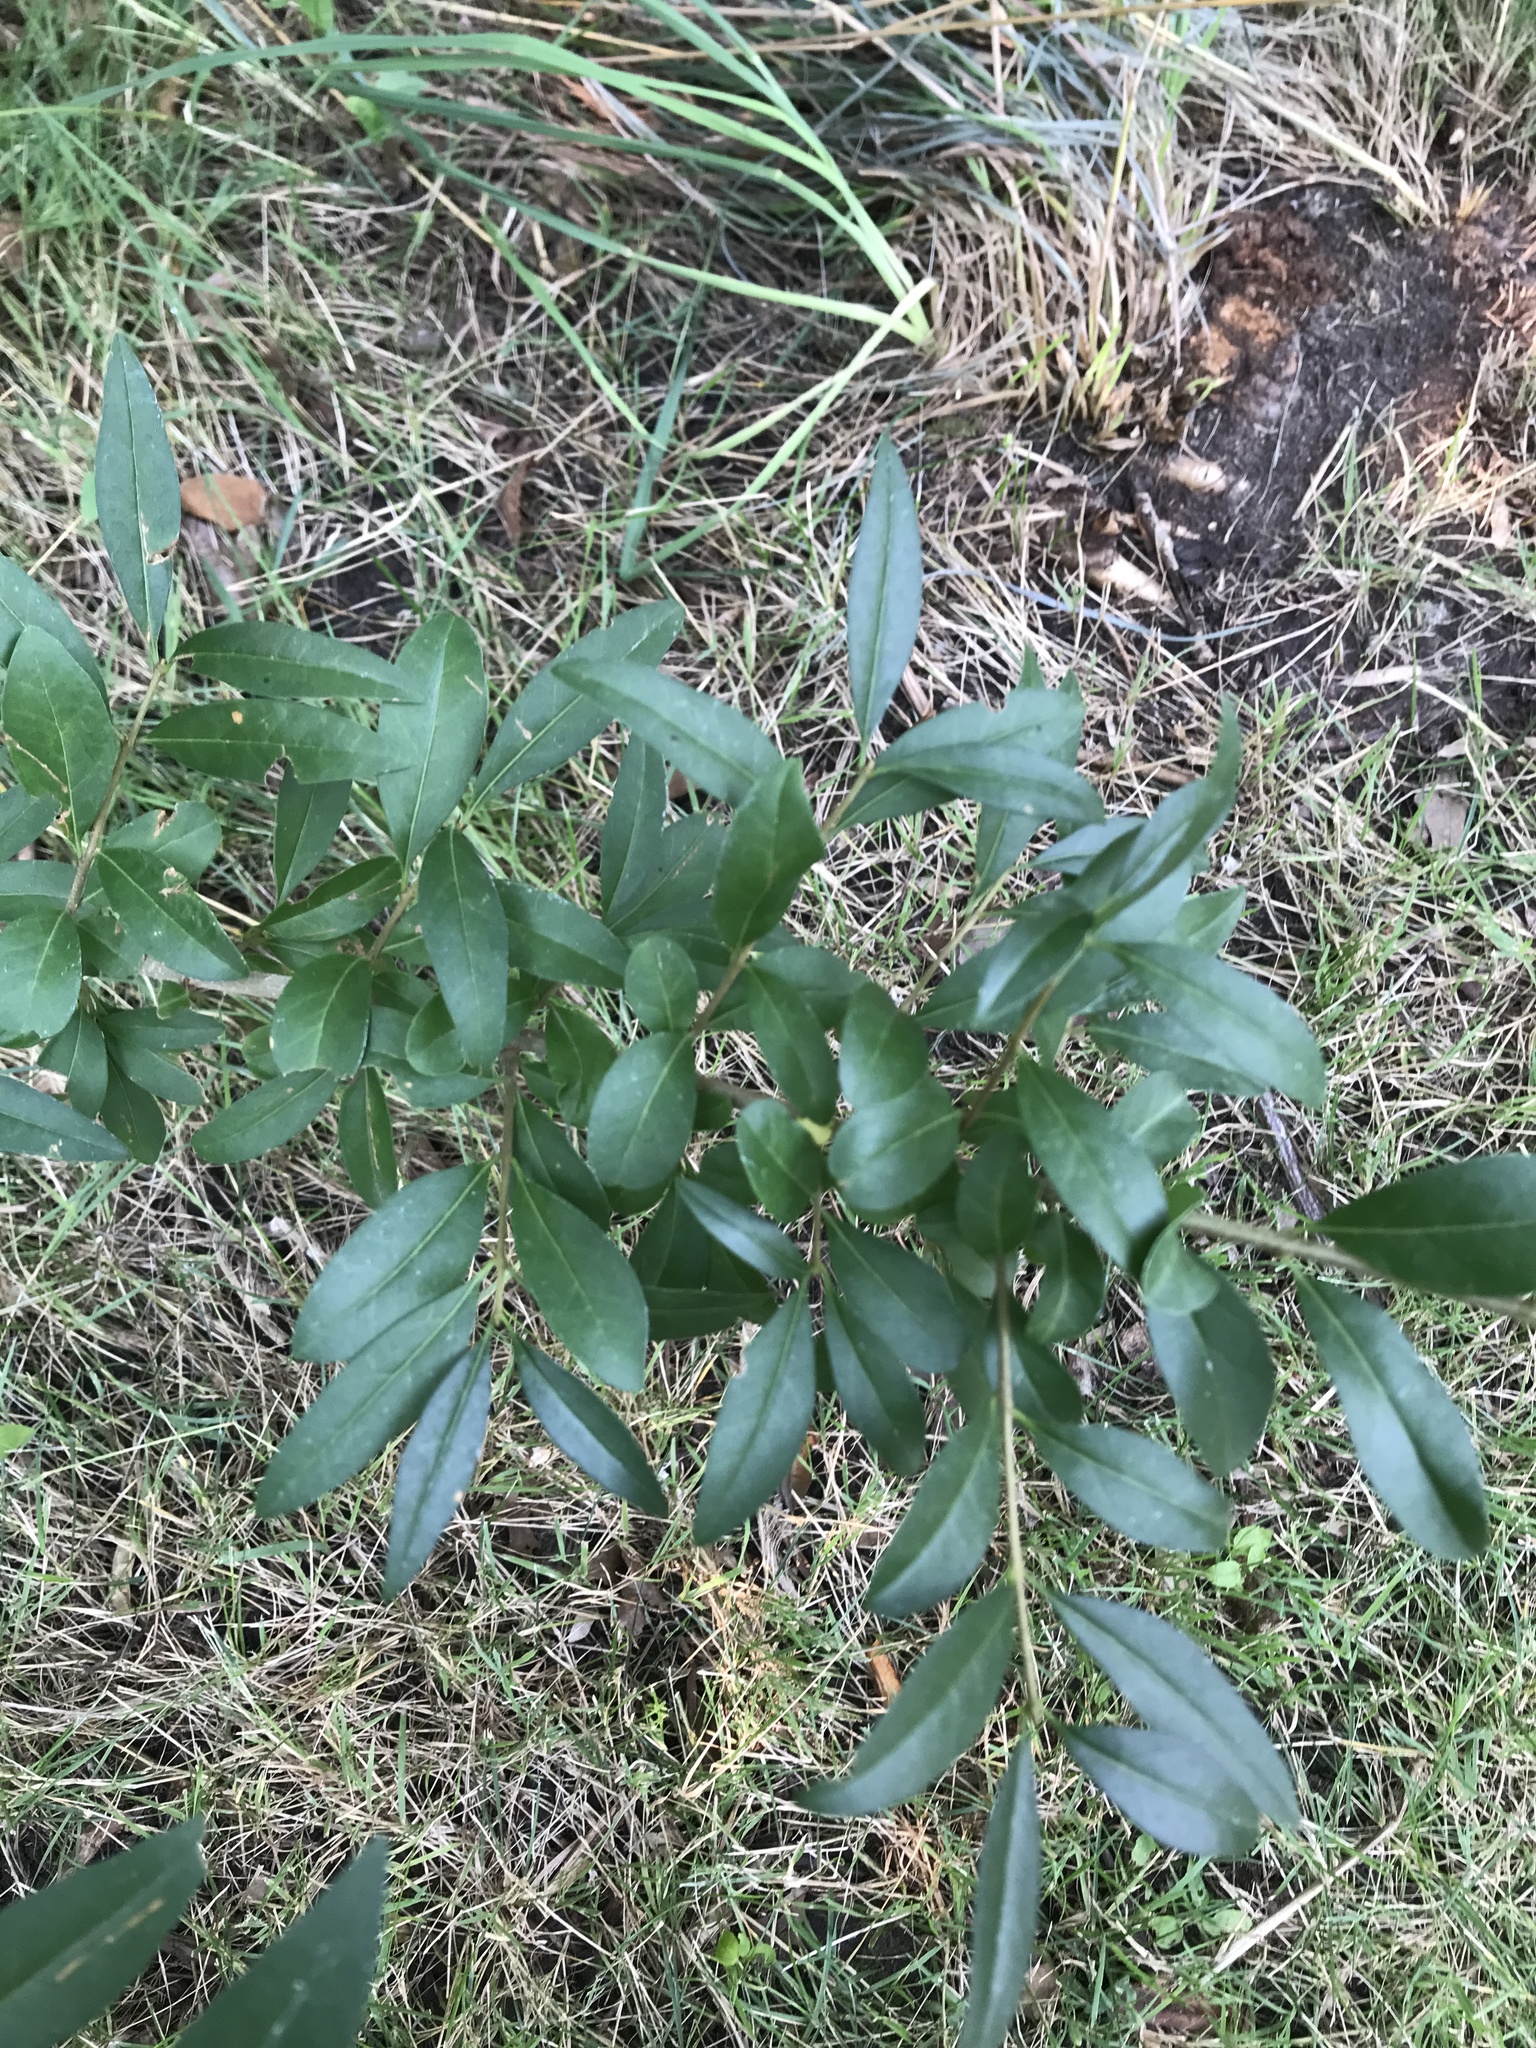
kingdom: Plantae
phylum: Tracheophyta
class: Magnoliopsida
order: Lamiales
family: Oleaceae
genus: Ligustrum
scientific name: Ligustrum vulgare
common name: Wild privet
